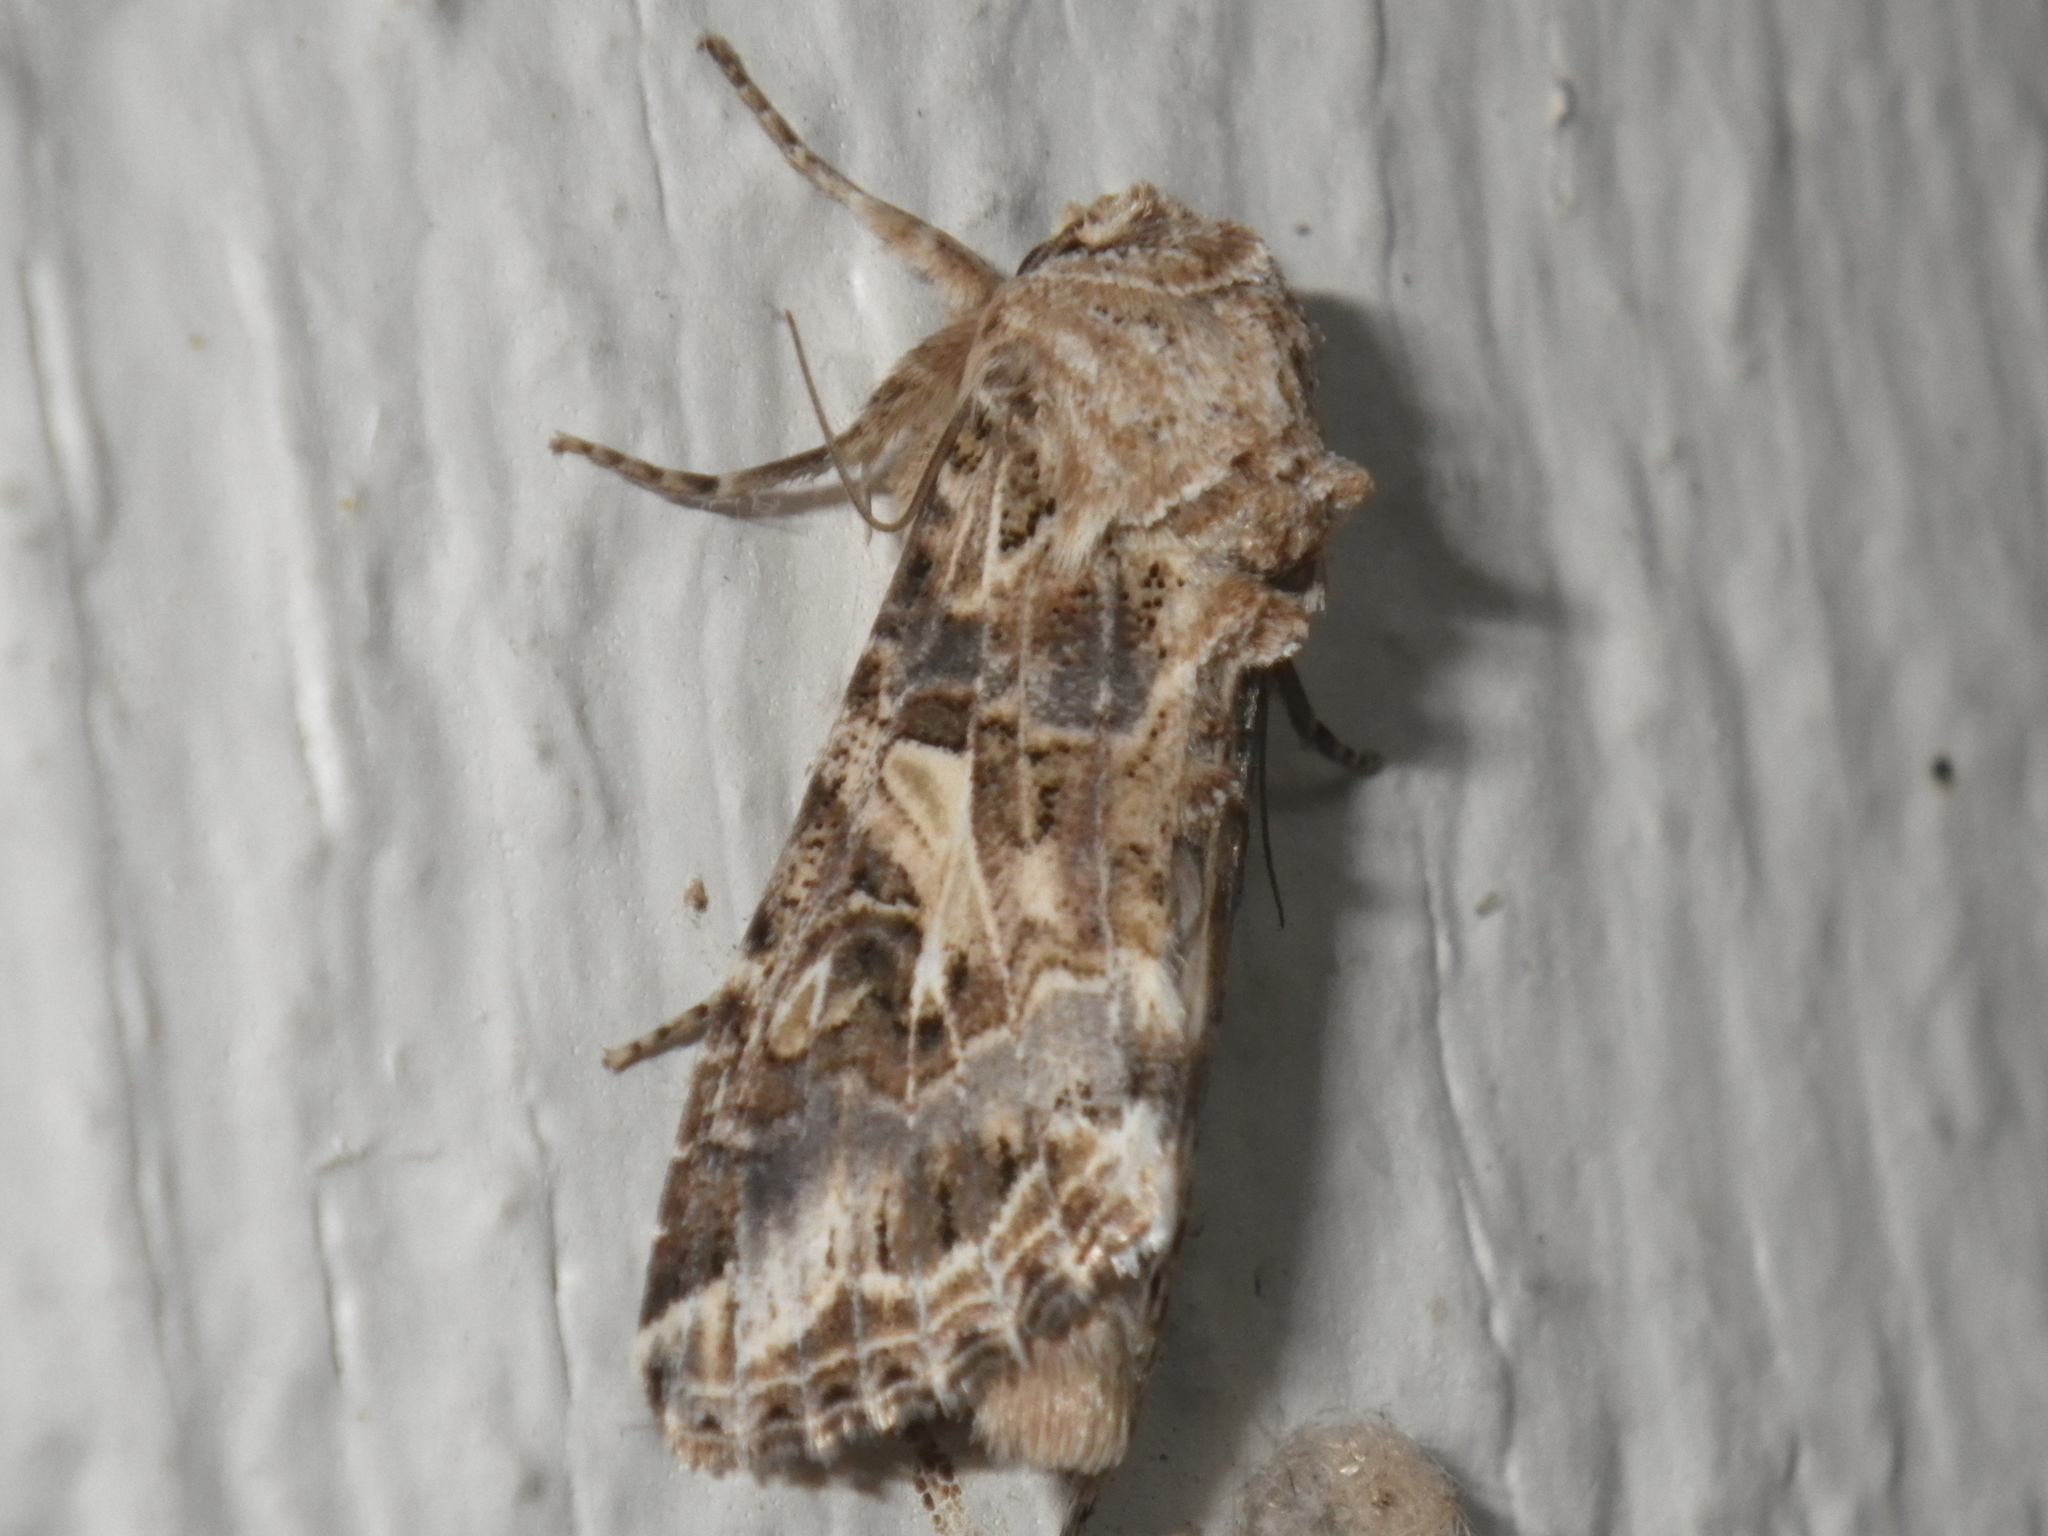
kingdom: Animalia
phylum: Arthropoda
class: Insecta
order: Lepidoptera
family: Noctuidae
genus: Spodoptera
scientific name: Spodoptera praefica
